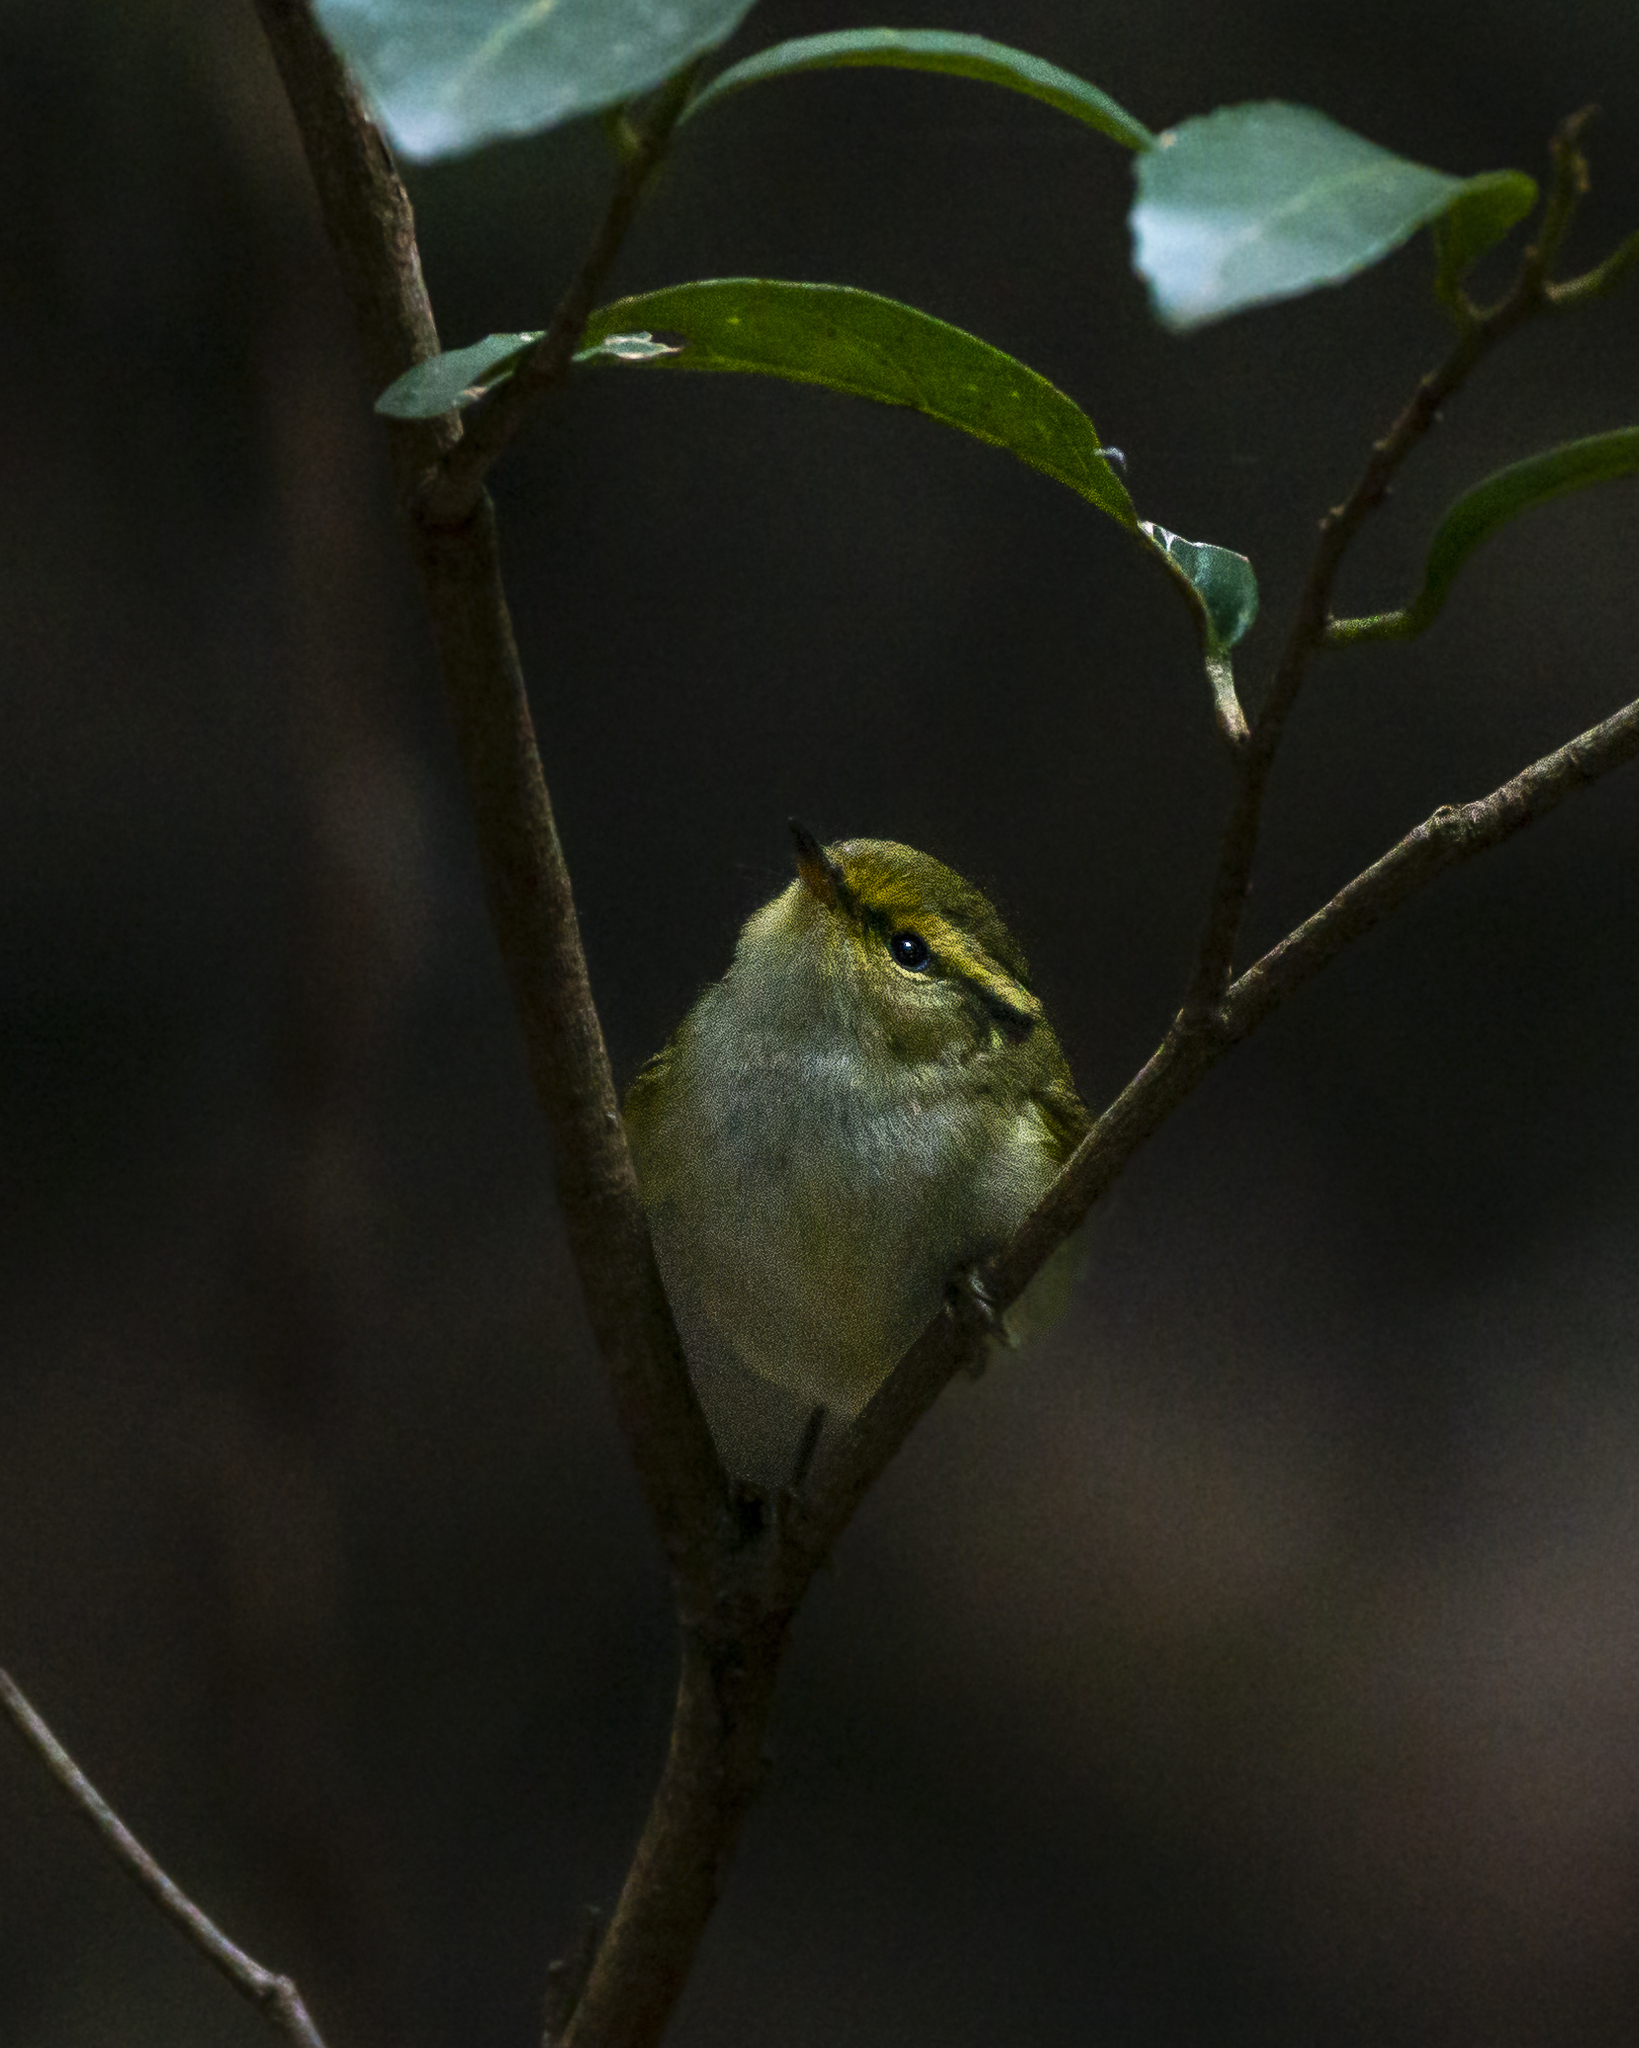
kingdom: Animalia
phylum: Chordata
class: Aves
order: Passeriformes
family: Phylloscopidae
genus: Phylloscopus
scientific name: Phylloscopus proregulus
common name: Pallas's leaf warbler
